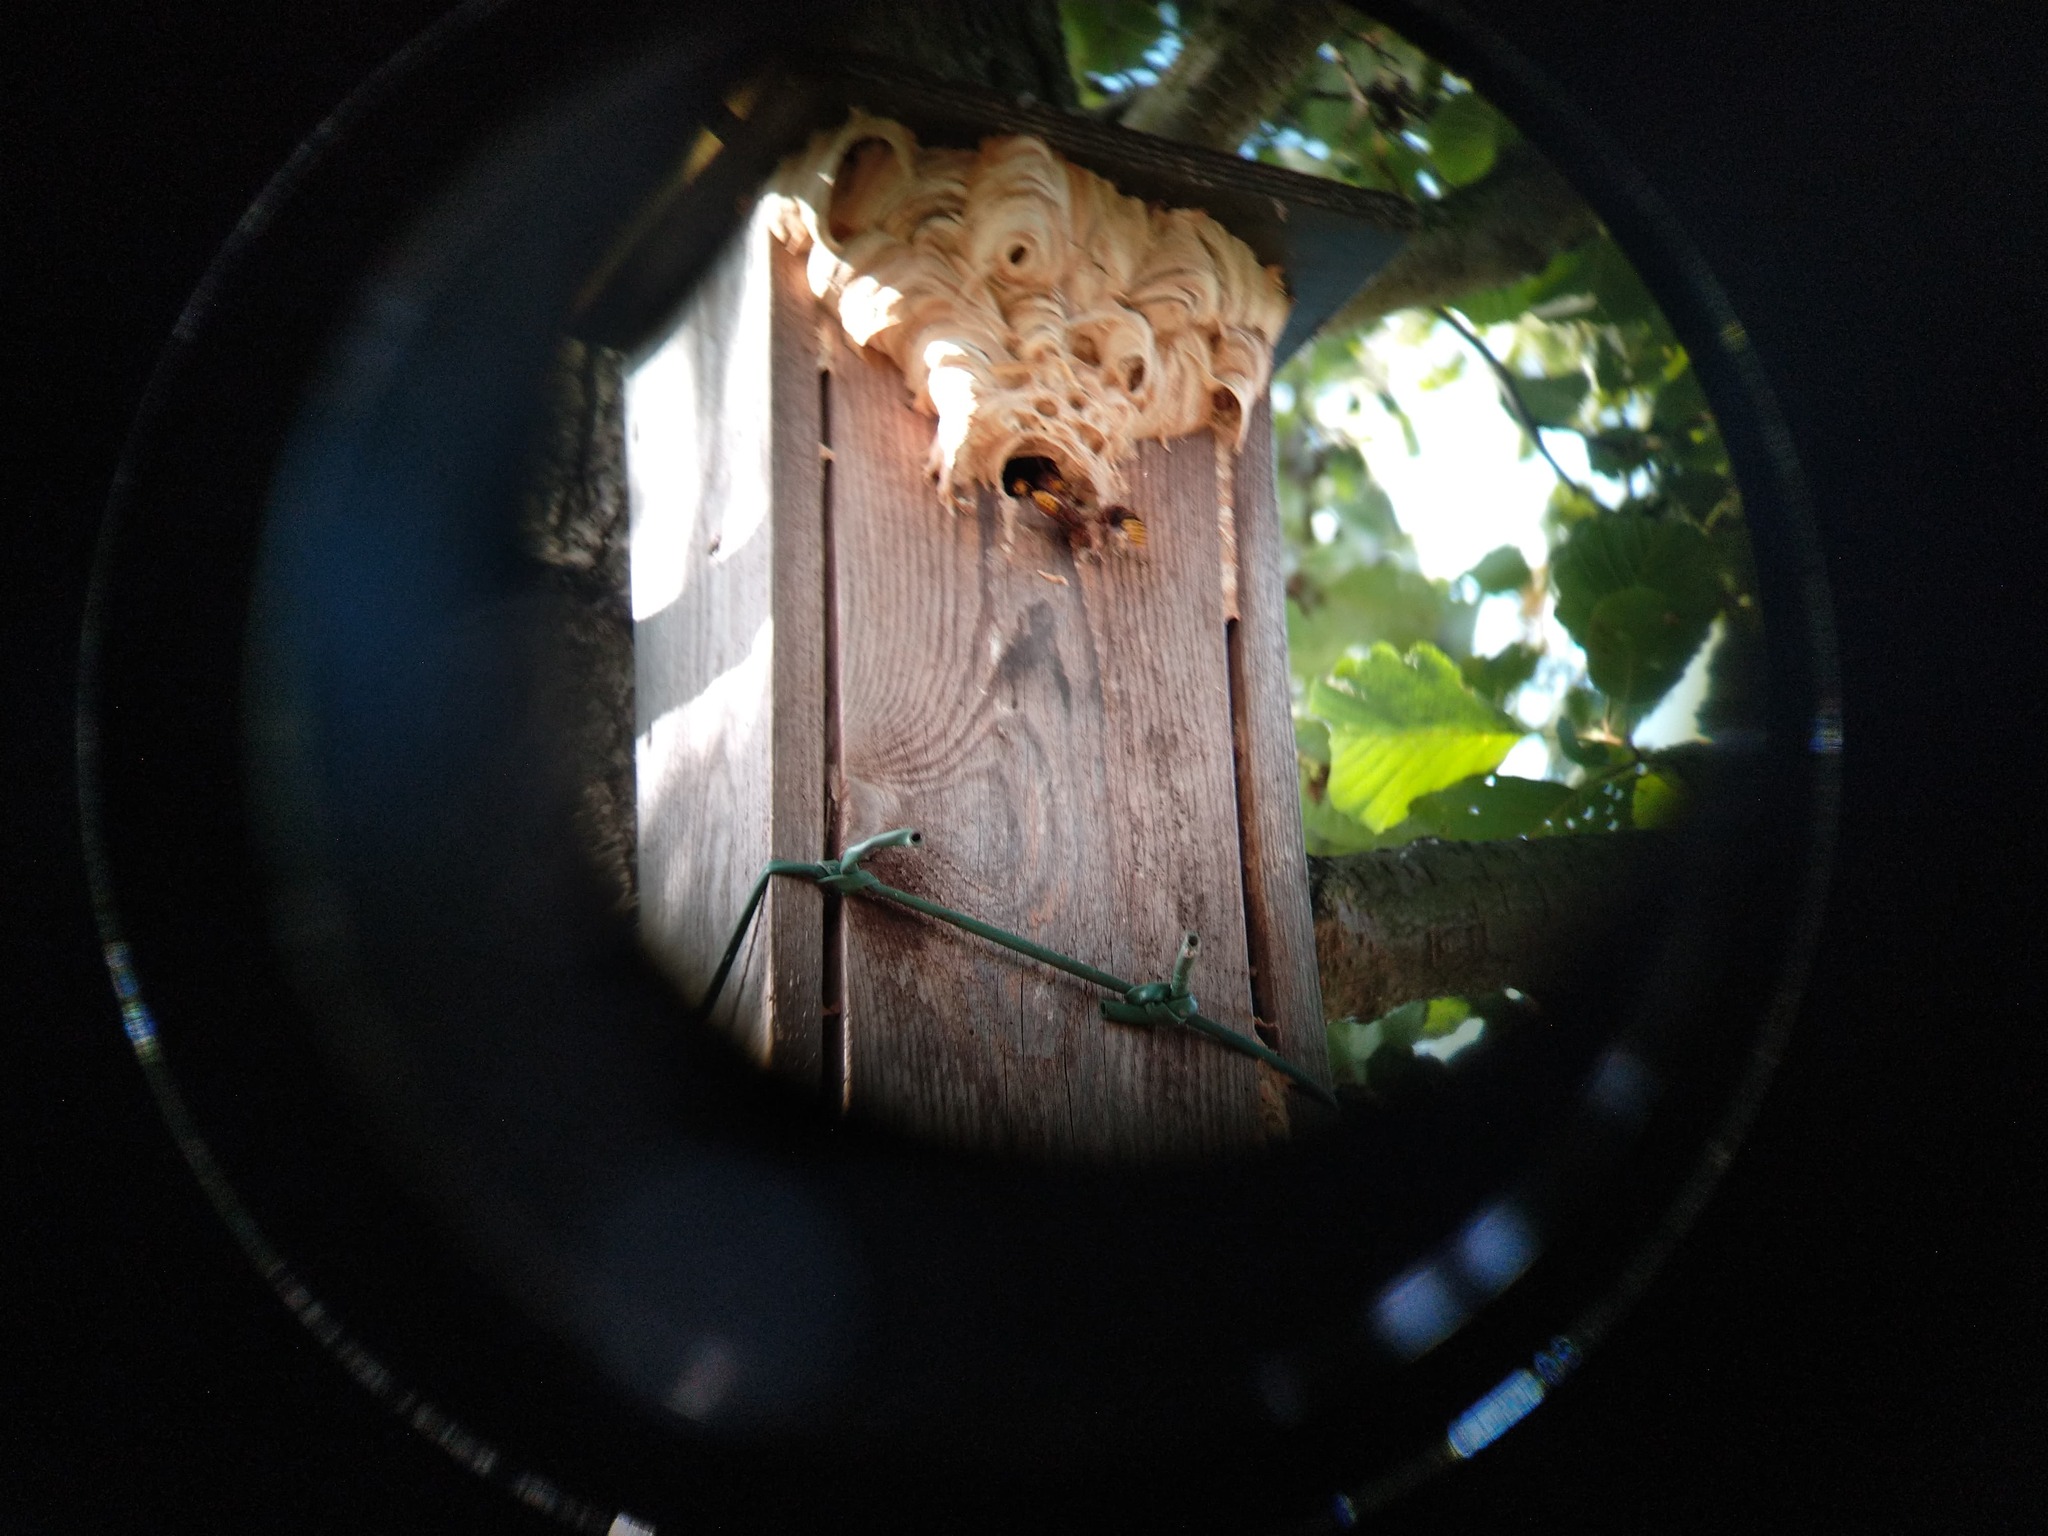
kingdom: Animalia
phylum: Arthropoda
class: Insecta
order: Hymenoptera
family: Vespidae
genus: Vespa
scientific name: Vespa crabro
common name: Hornet
